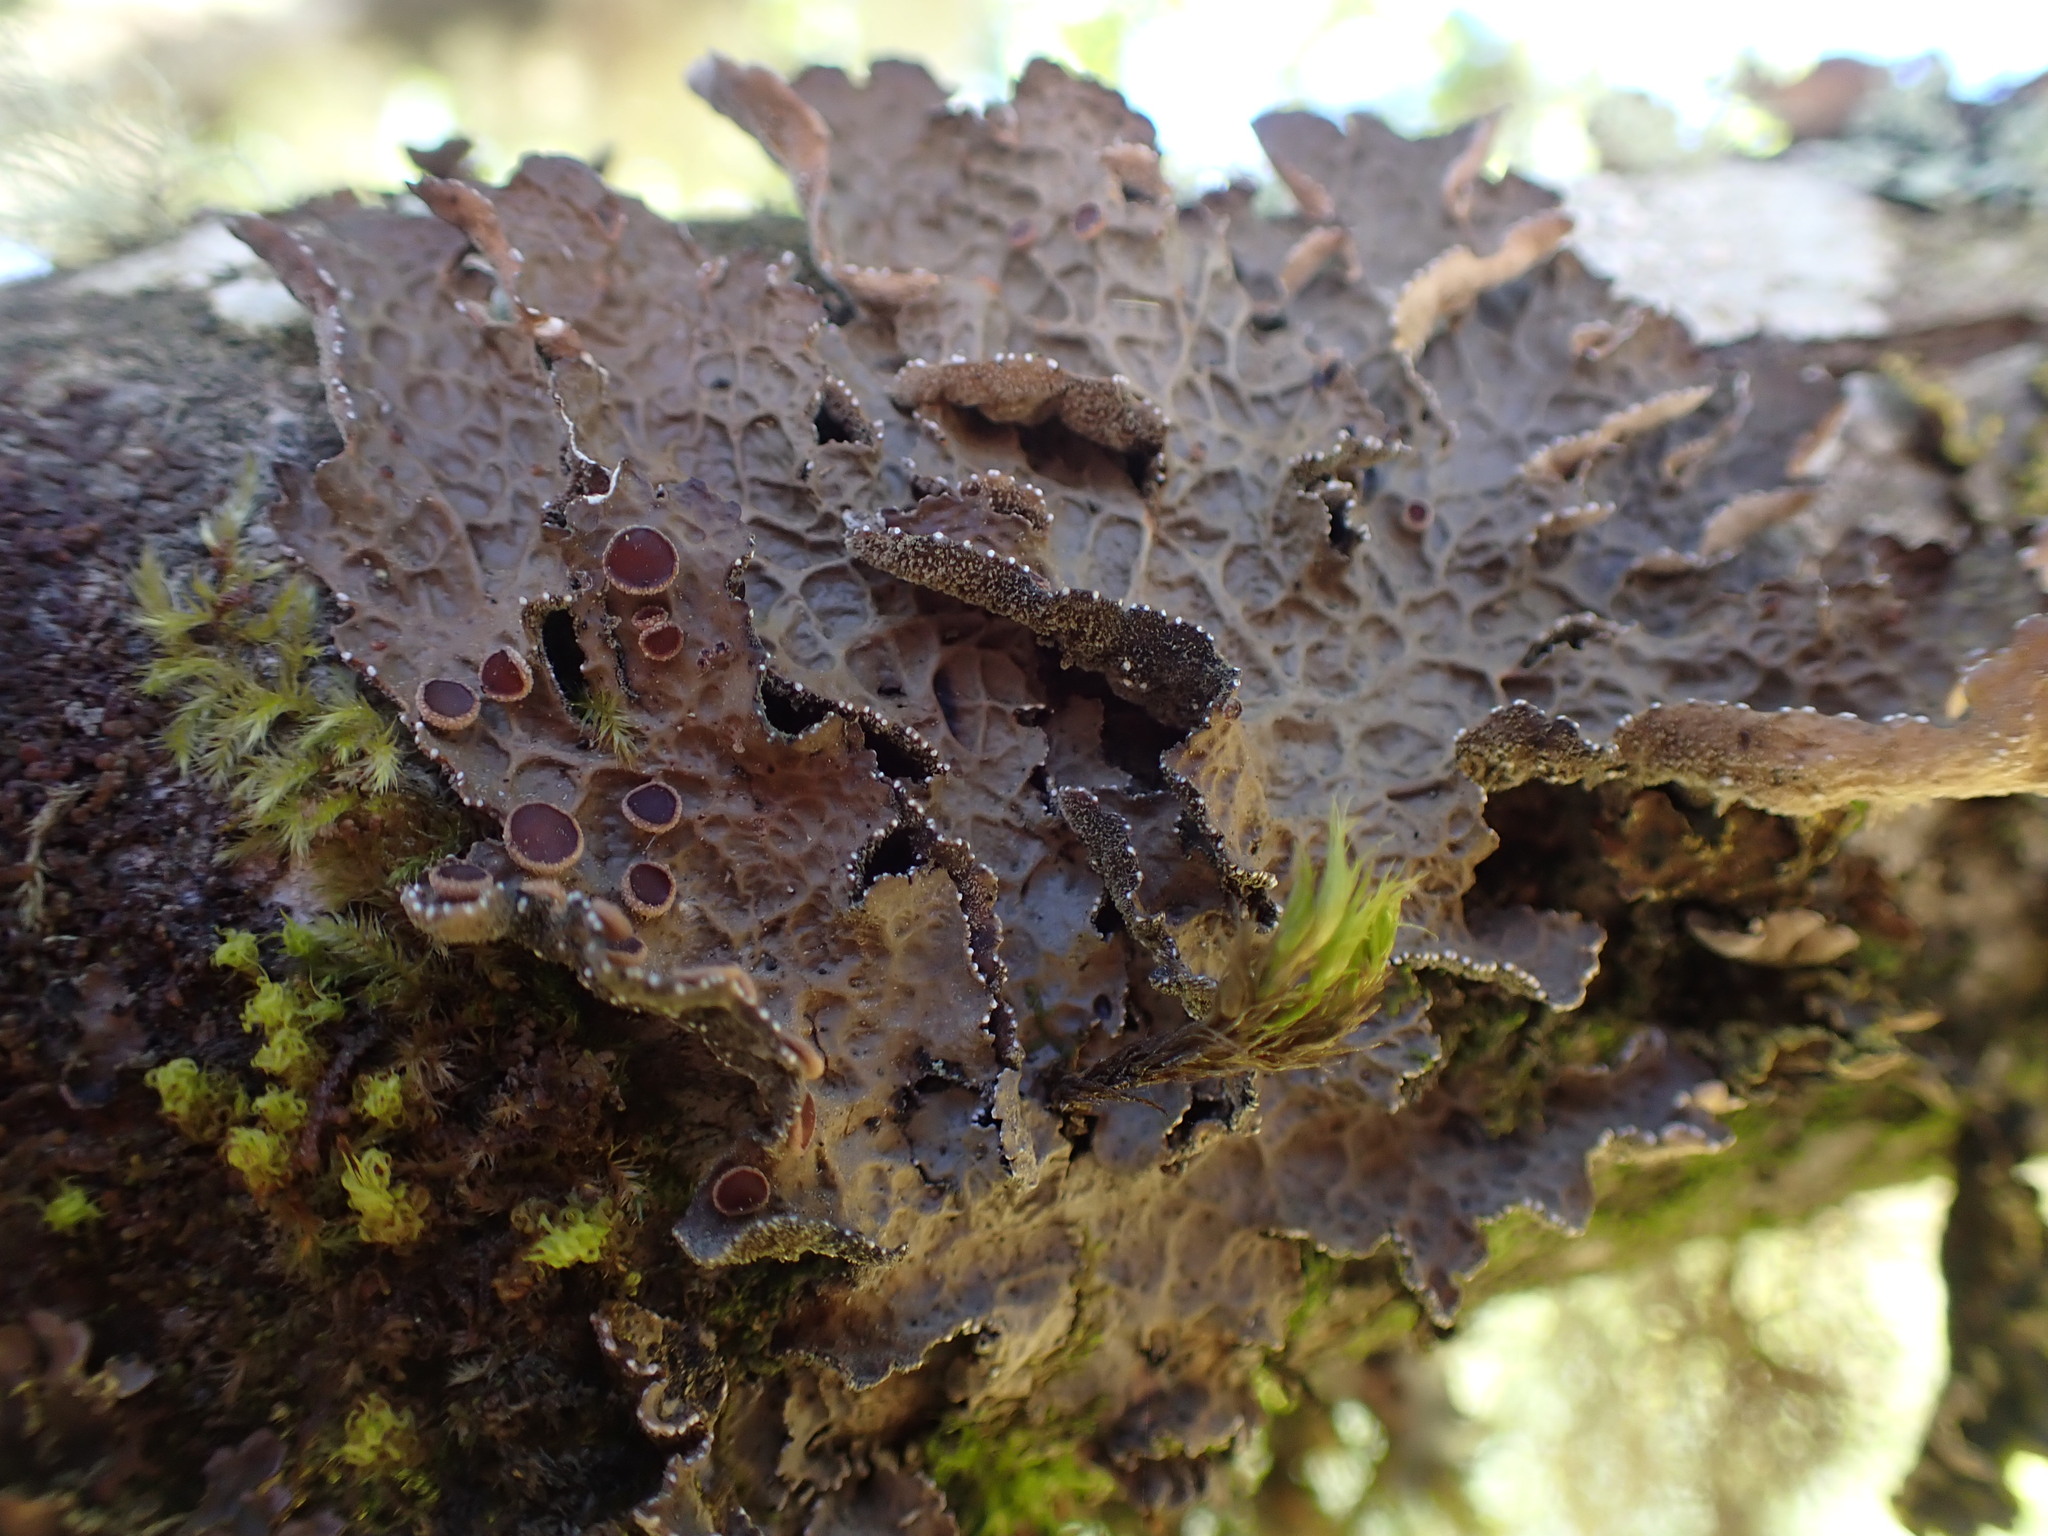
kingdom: Fungi
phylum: Ascomycota
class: Lecanoromycetes
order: Peltigerales
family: Lobariaceae
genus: Lobaria
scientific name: Lobaria anthraspis
